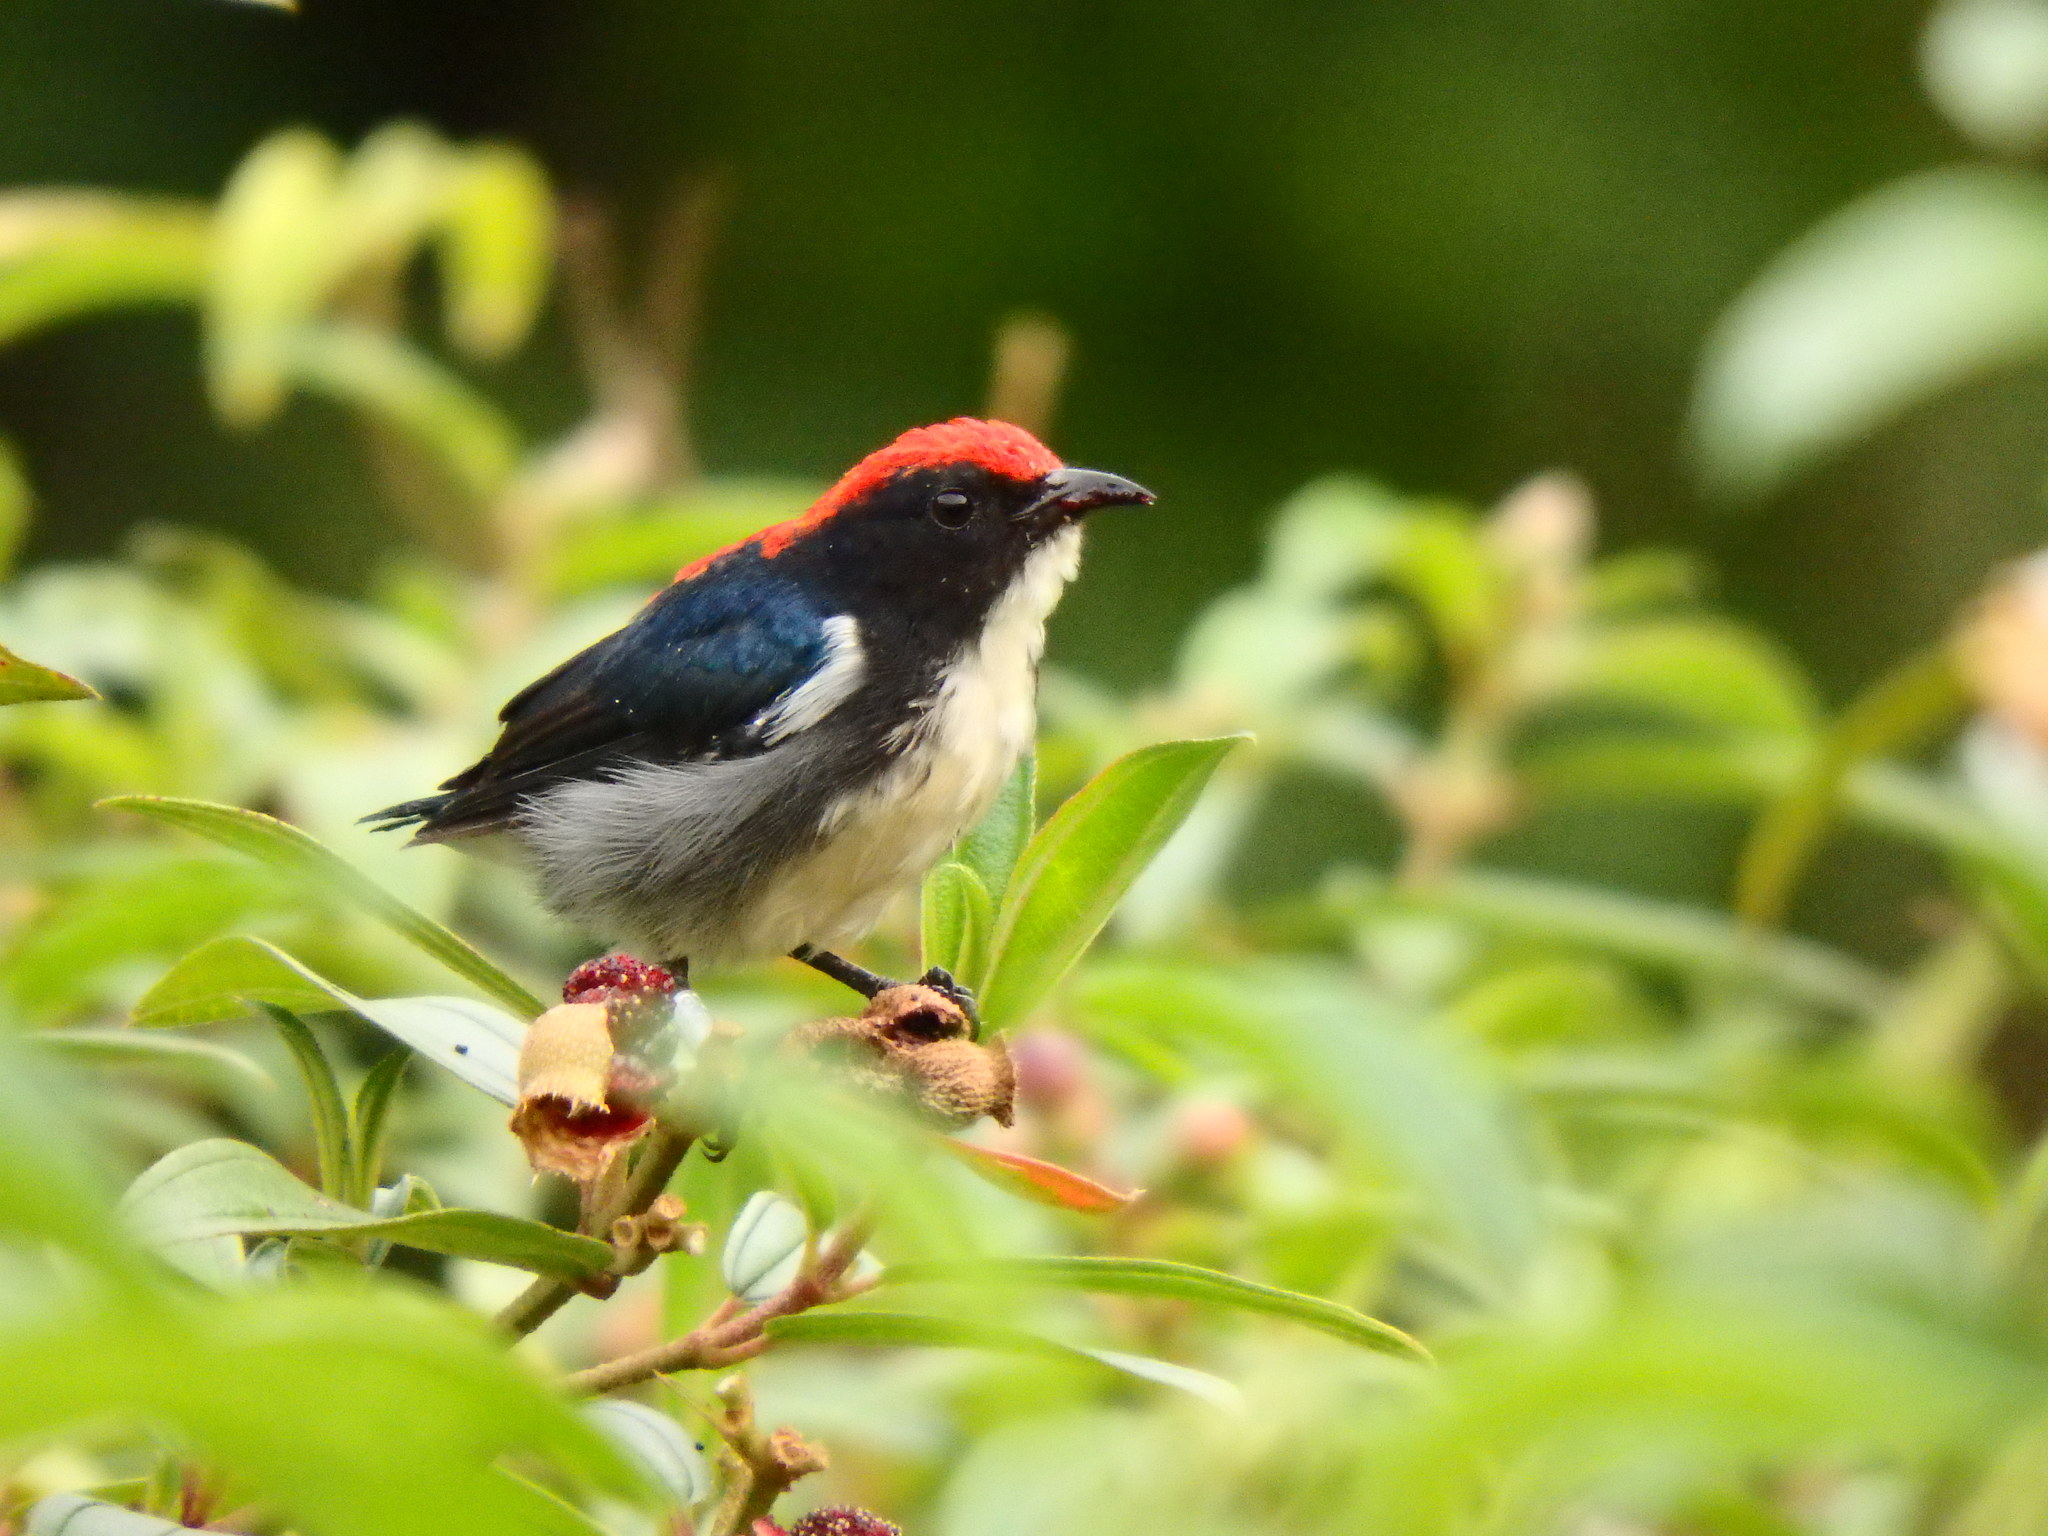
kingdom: Animalia
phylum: Chordata
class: Aves
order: Passeriformes
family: Dicaeidae
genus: Dicaeum
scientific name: Dicaeum cruentatum
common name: Scarlet-backed flowerpecker
